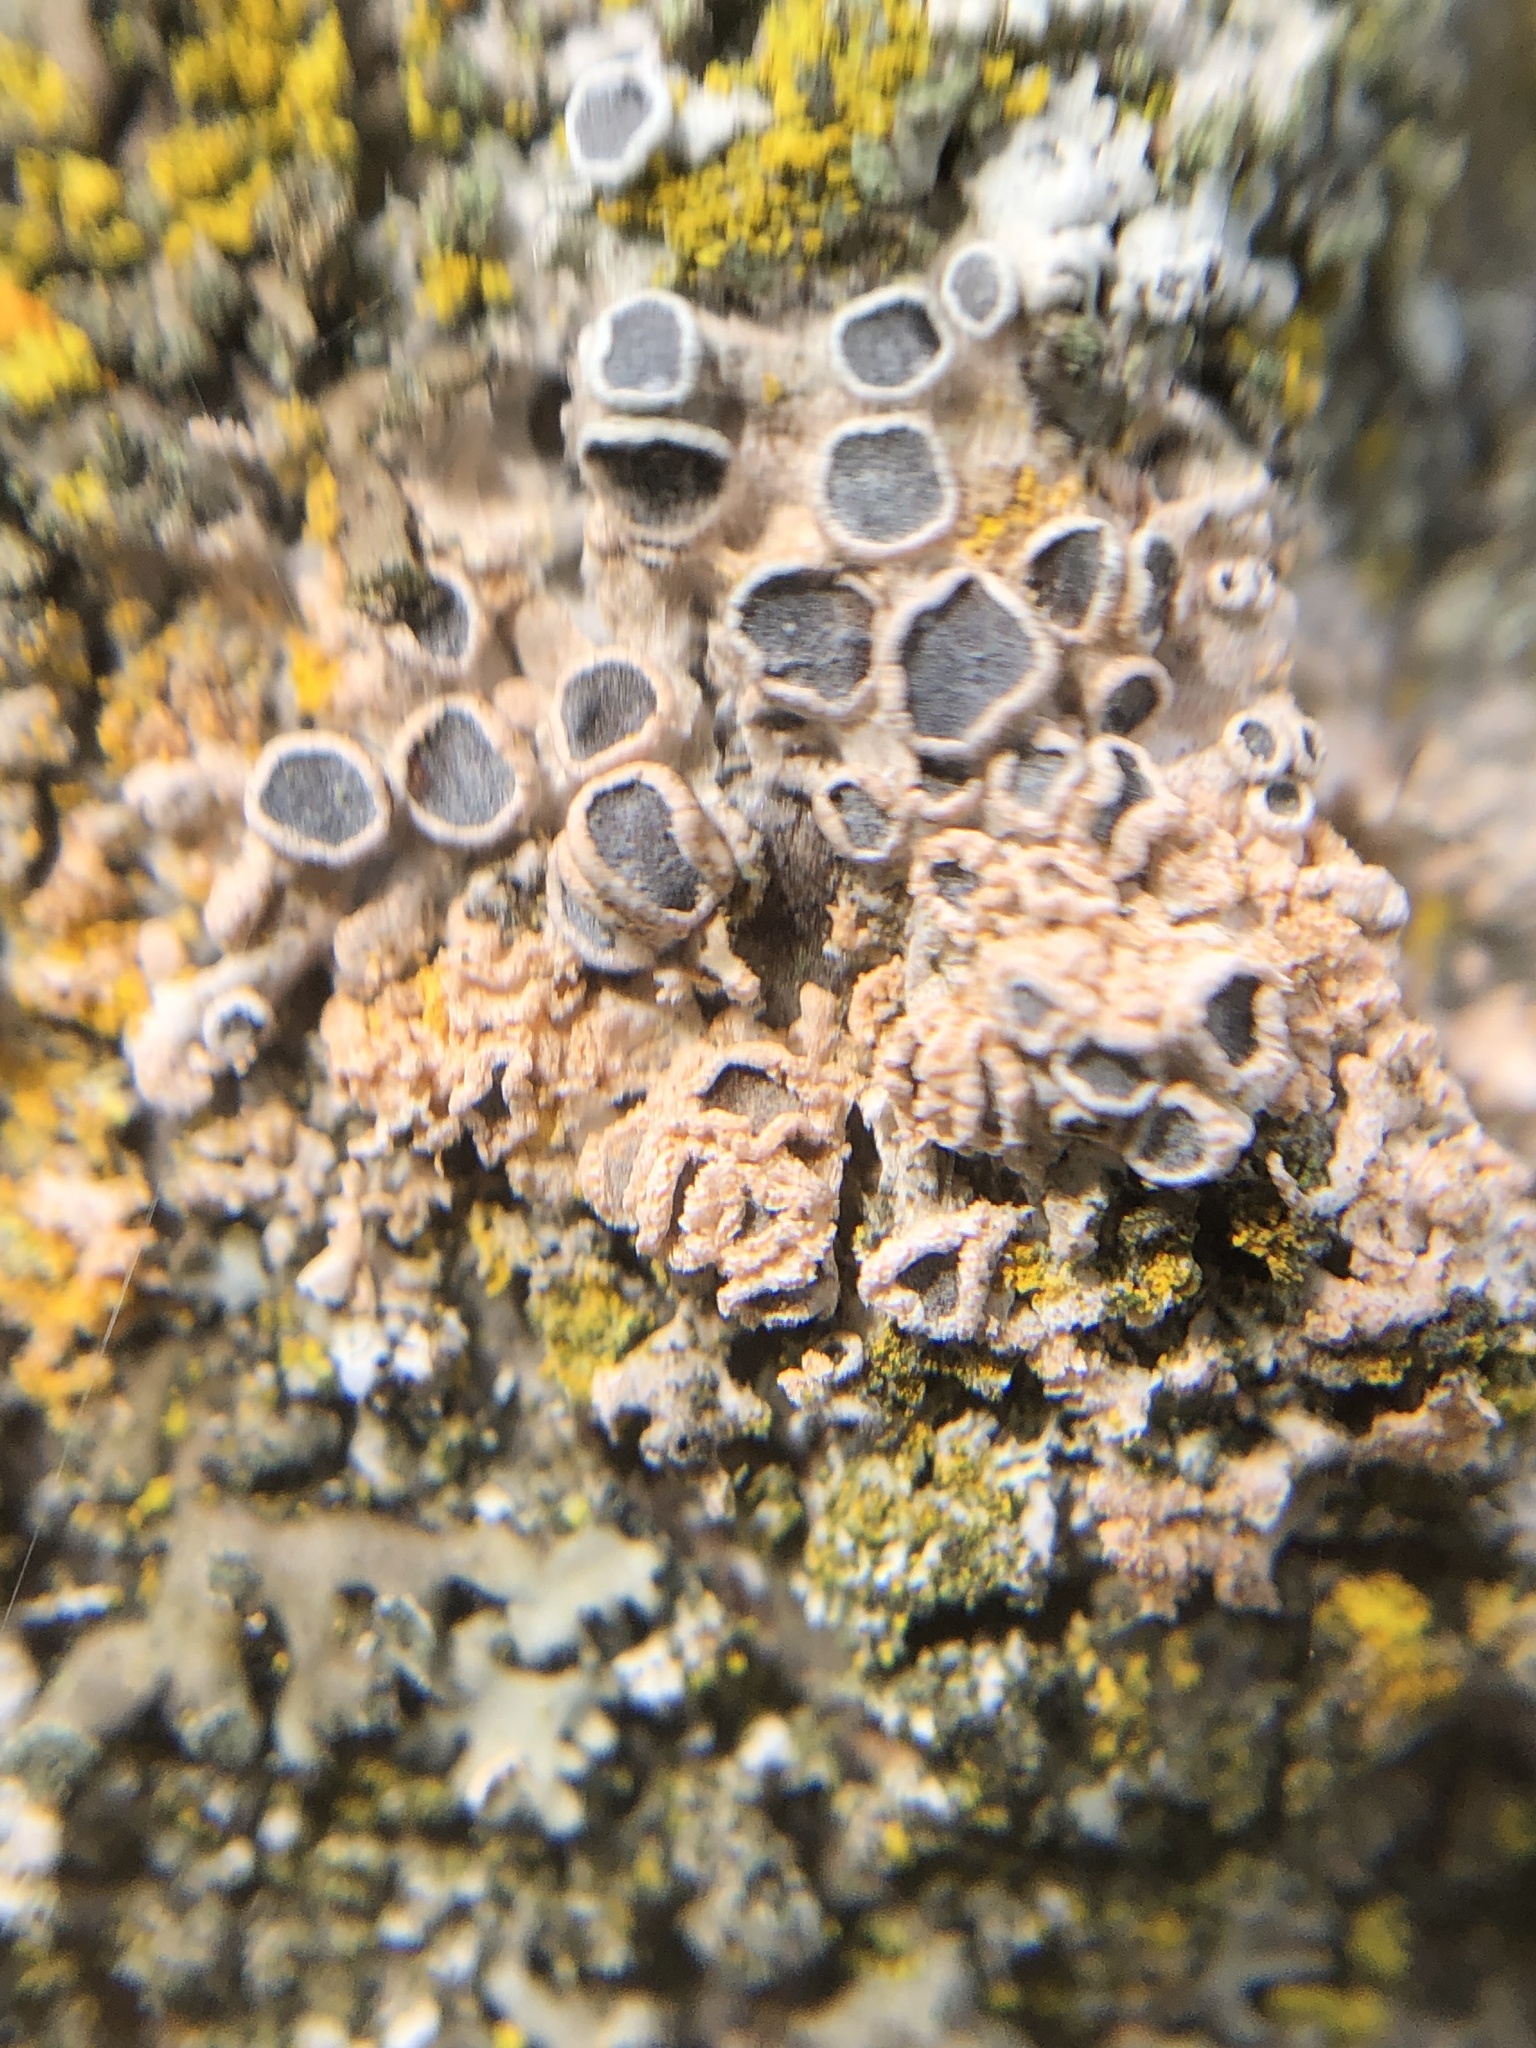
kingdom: Fungi
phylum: Ascomycota
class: Lecanoromycetes
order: Caliciales
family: Physciaceae
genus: Physcia
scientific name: Physcia aipolia
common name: Hoary rosette lichen
